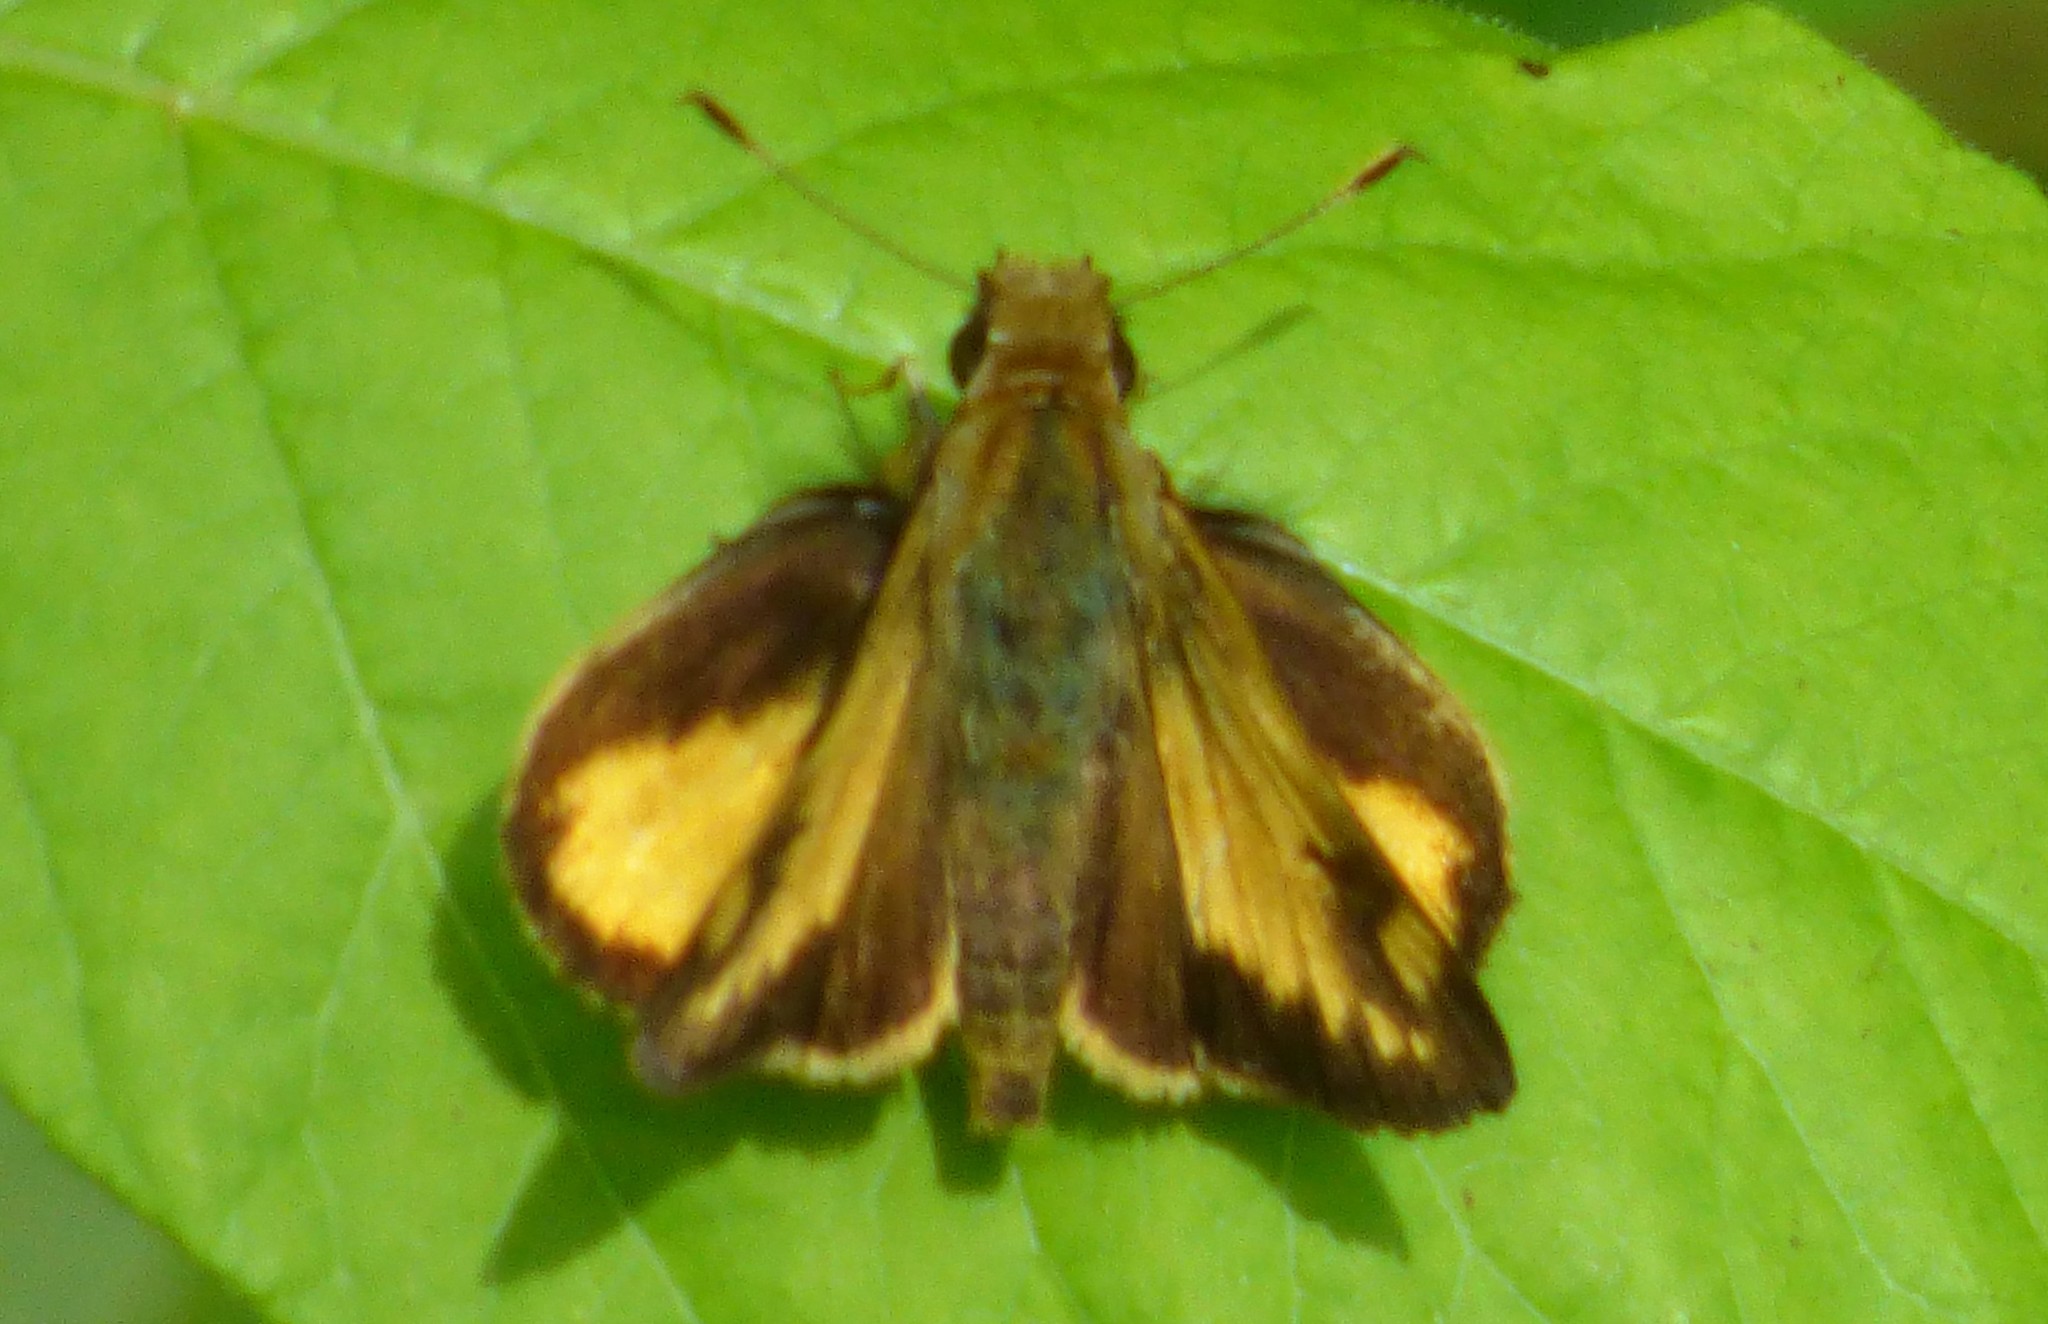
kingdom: Animalia
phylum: Arthropoda
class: Insecta
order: Lepidoptera
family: Hesperiidae
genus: Lon
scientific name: Lon zabulon
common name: Zabulon skipper
